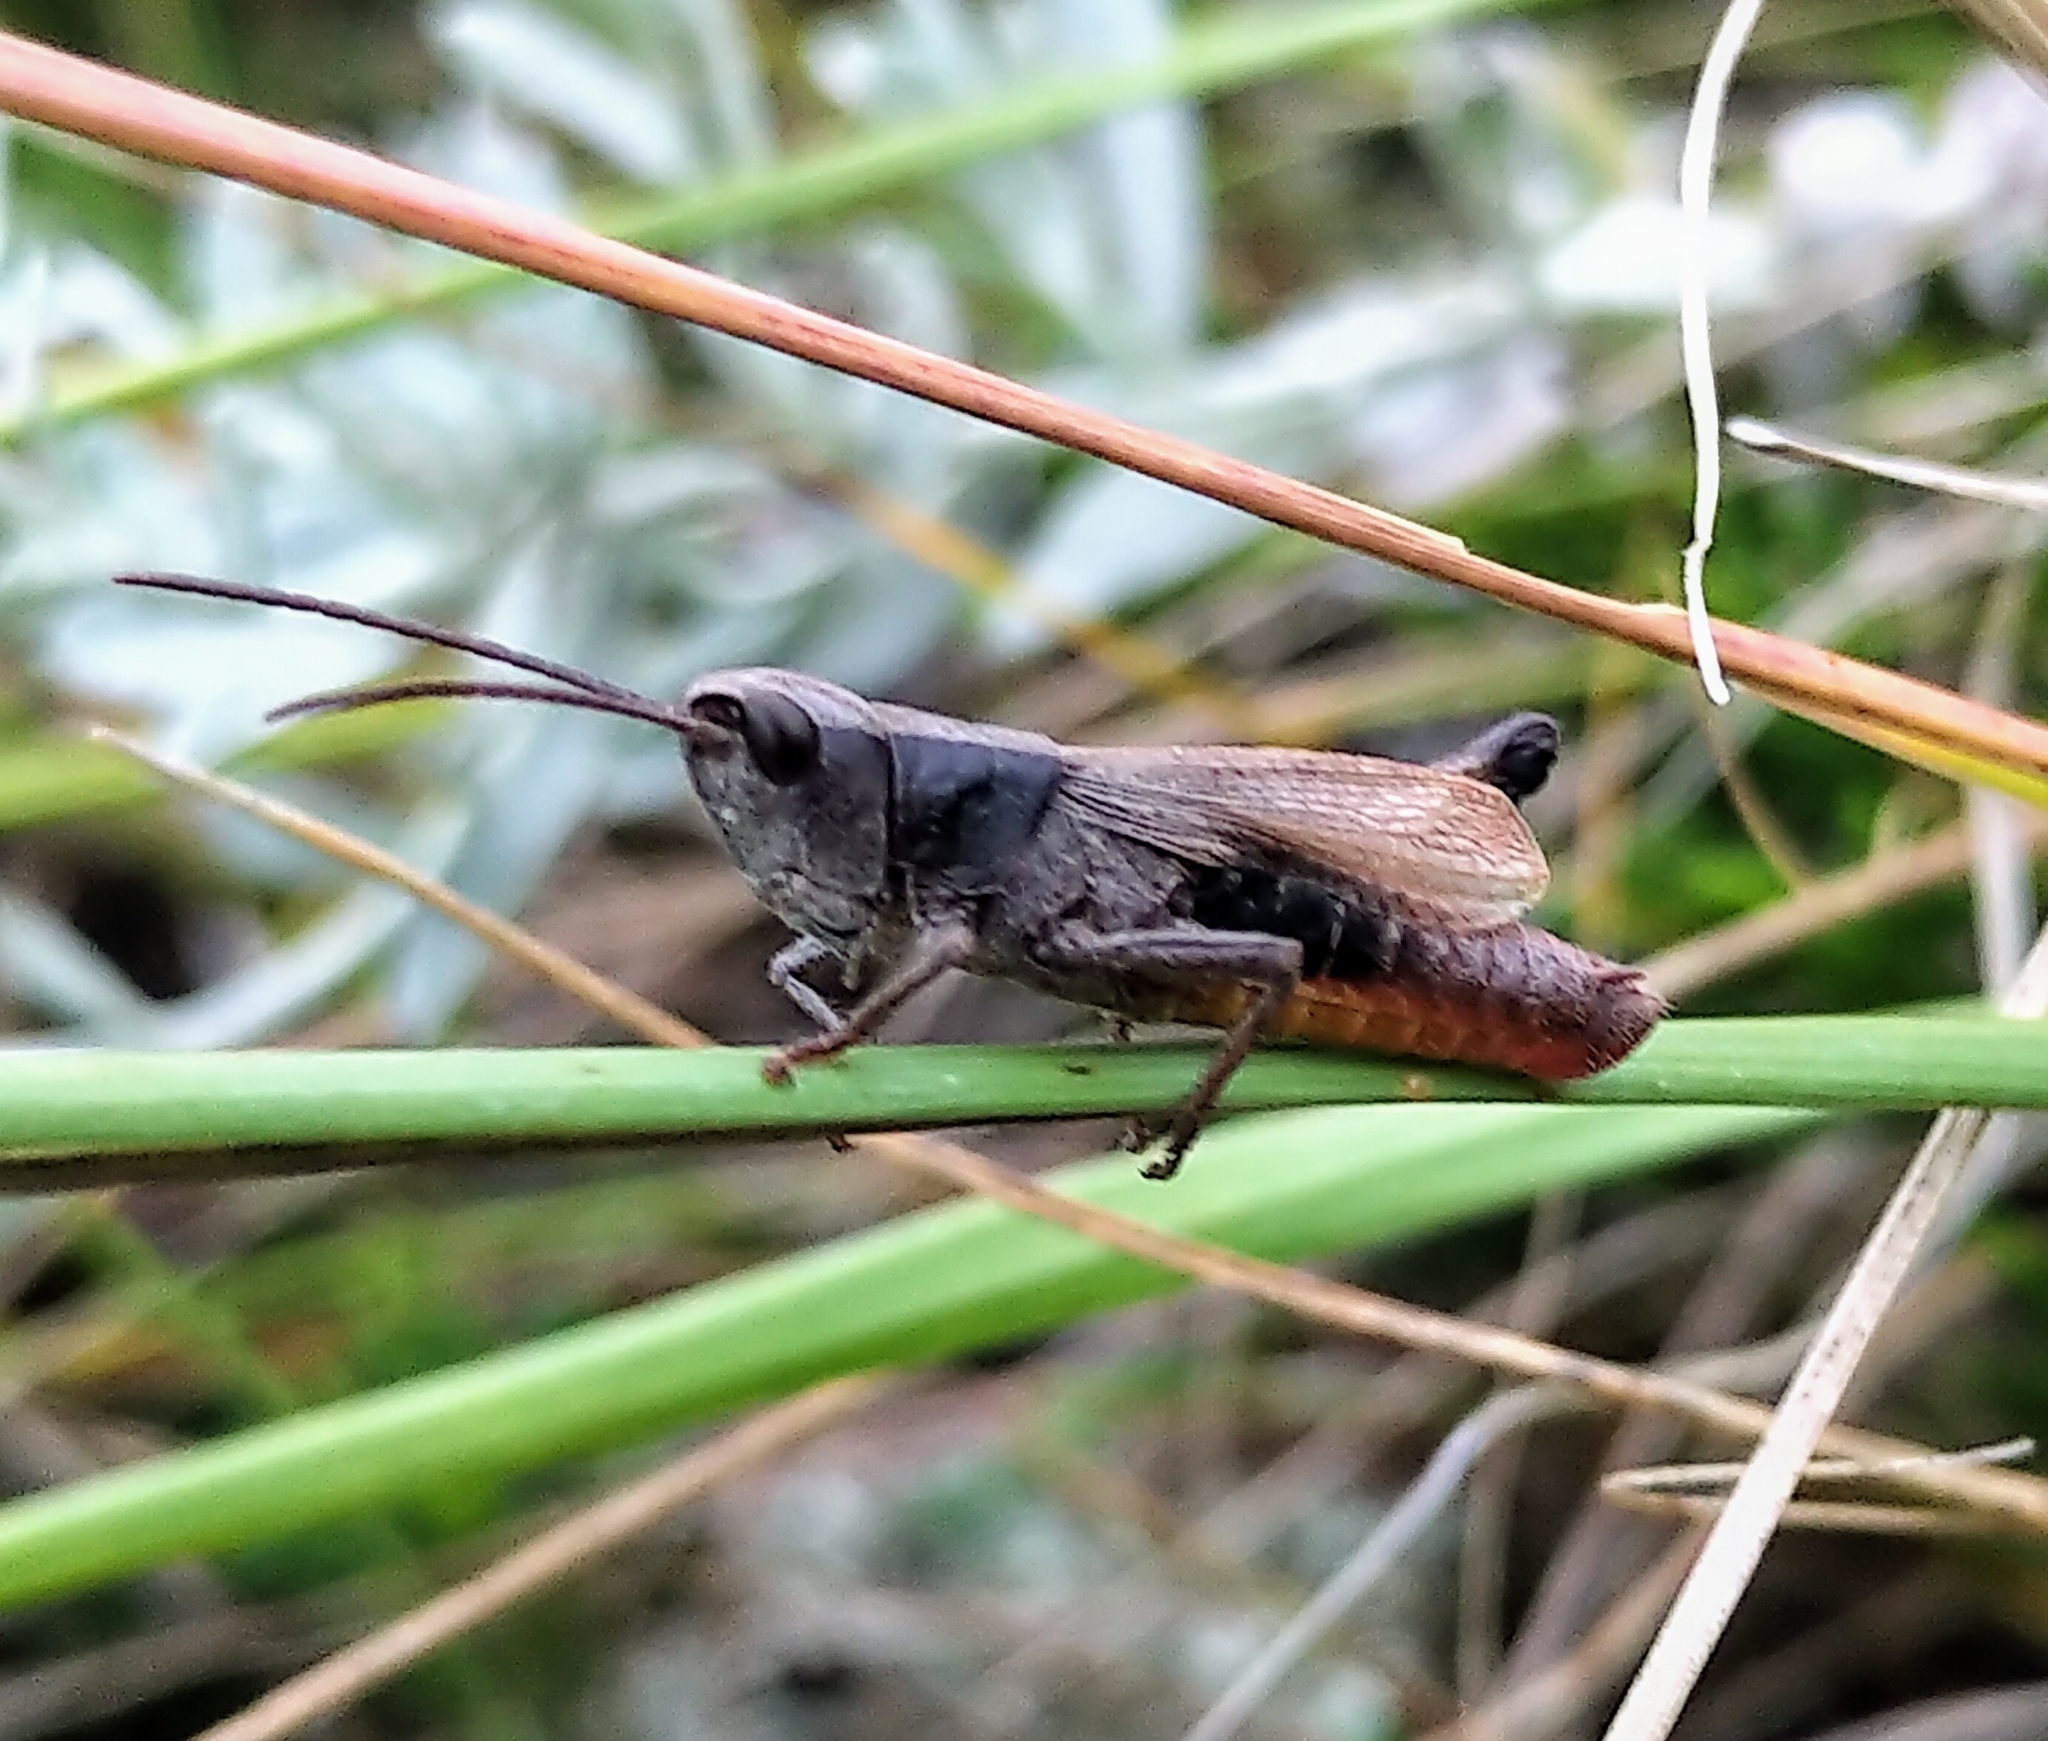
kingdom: Animalia
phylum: Arthropoda
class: Insecta
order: Orthoptera
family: Acrididae
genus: Chloealtis
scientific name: Chloealtis conspersa
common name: Sprinkled broad-winged grasshopper
